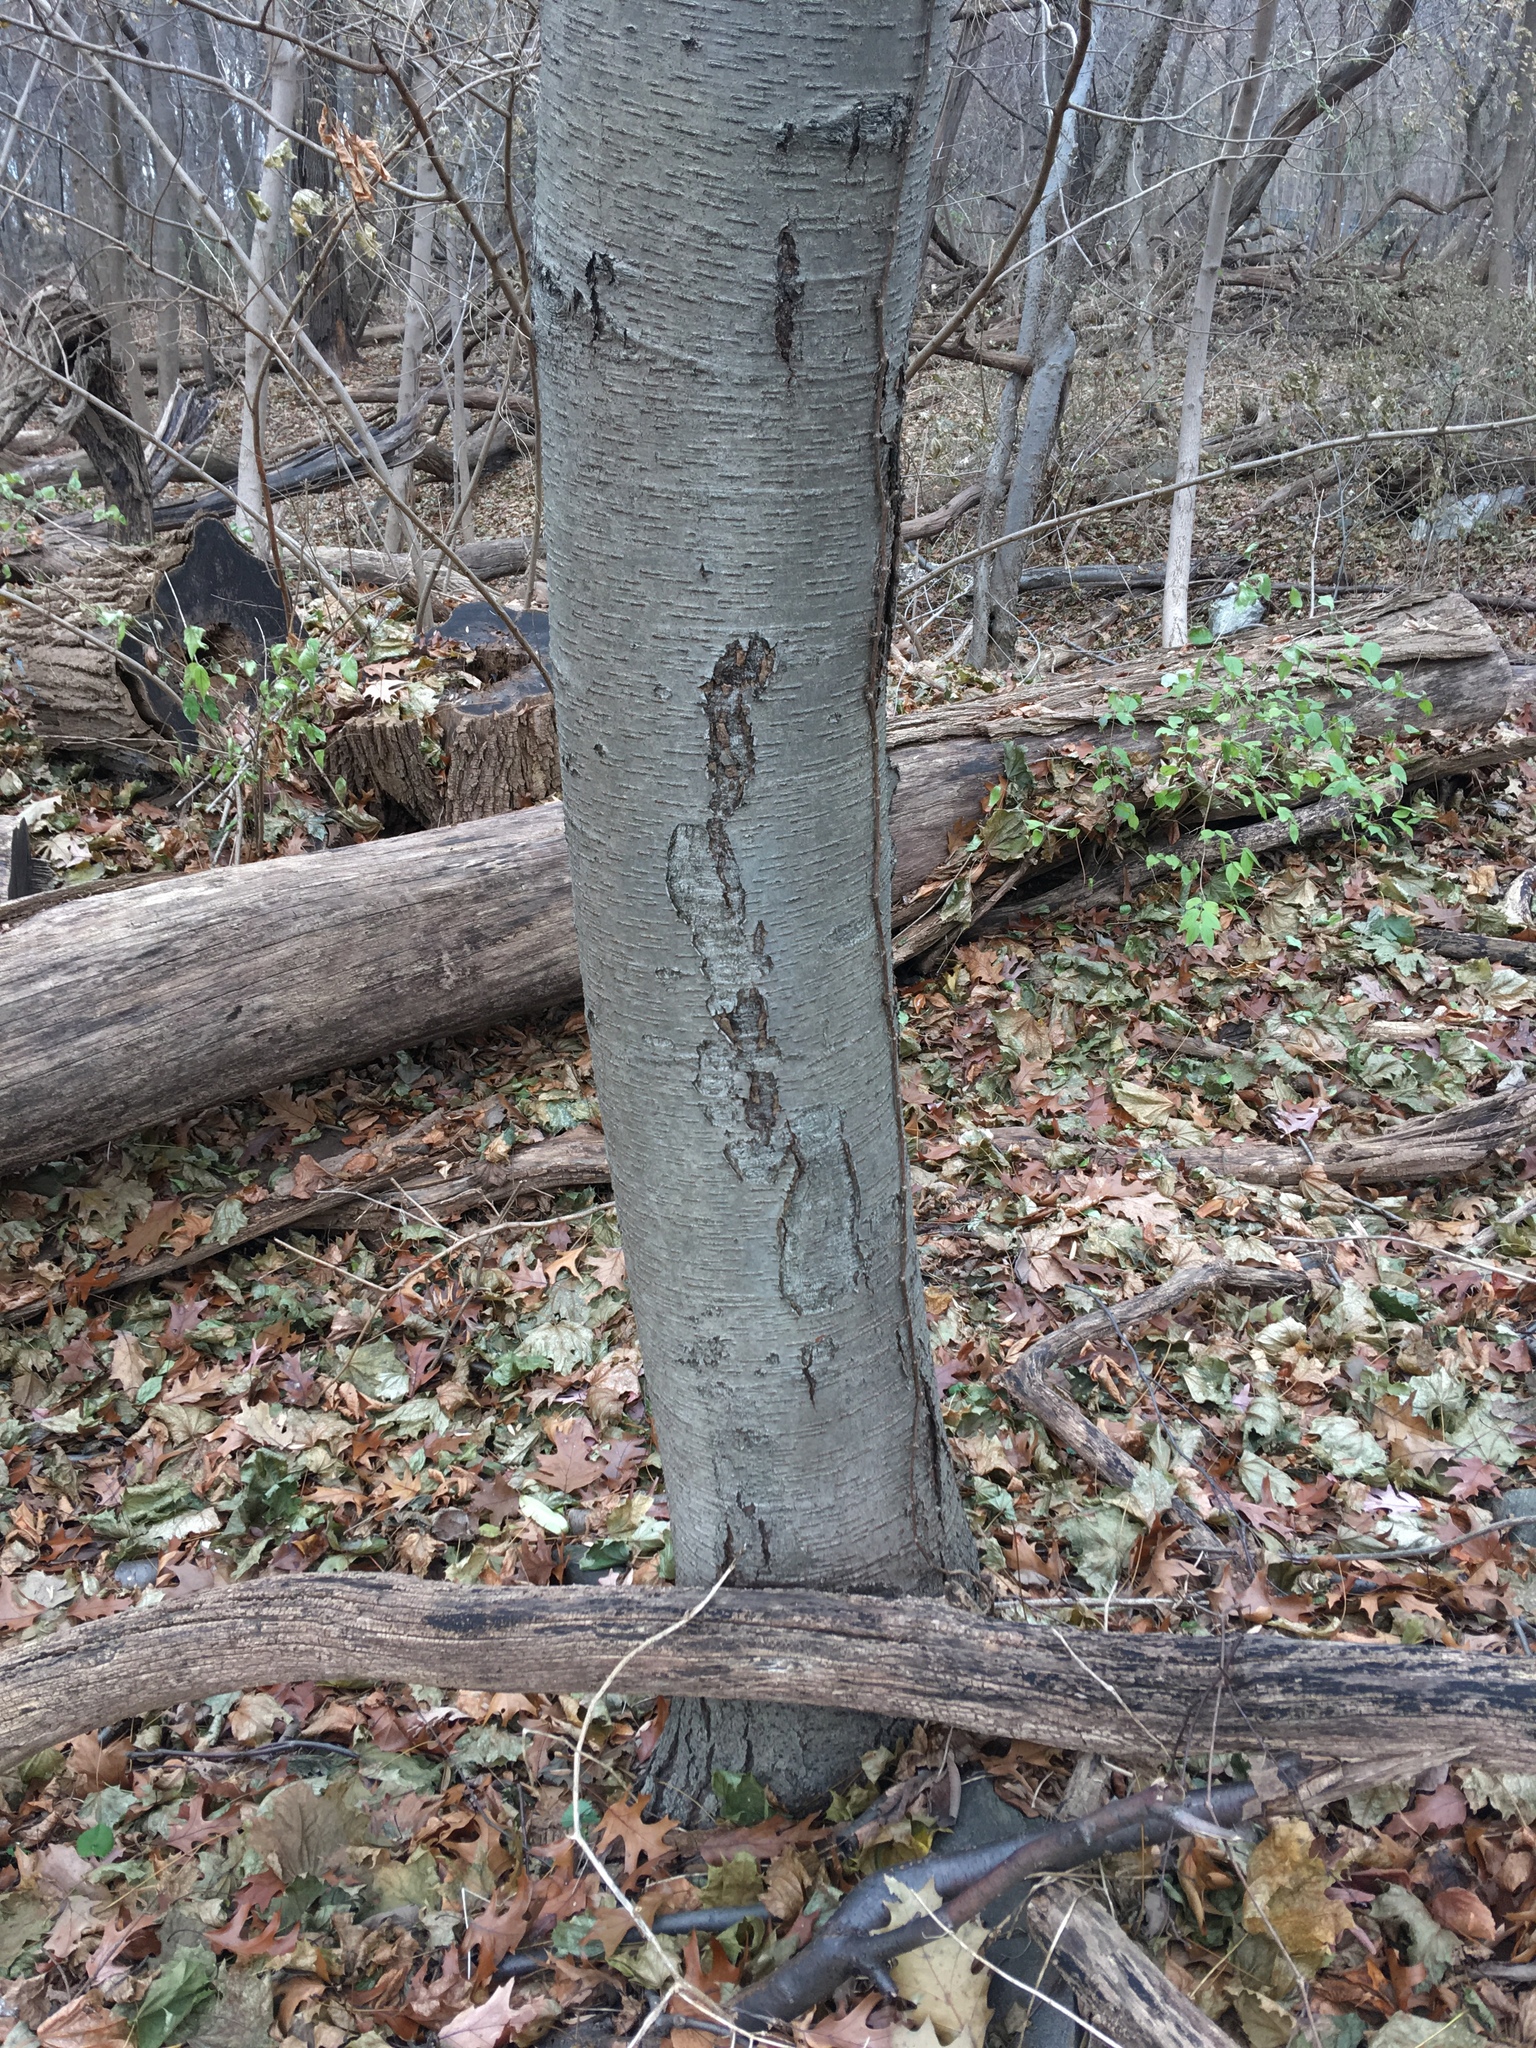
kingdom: Plantae
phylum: Tracheophyta
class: Magnoliopsida
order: Fagales
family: Betulaceae
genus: Betula
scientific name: Betula lenta
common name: Black birch
